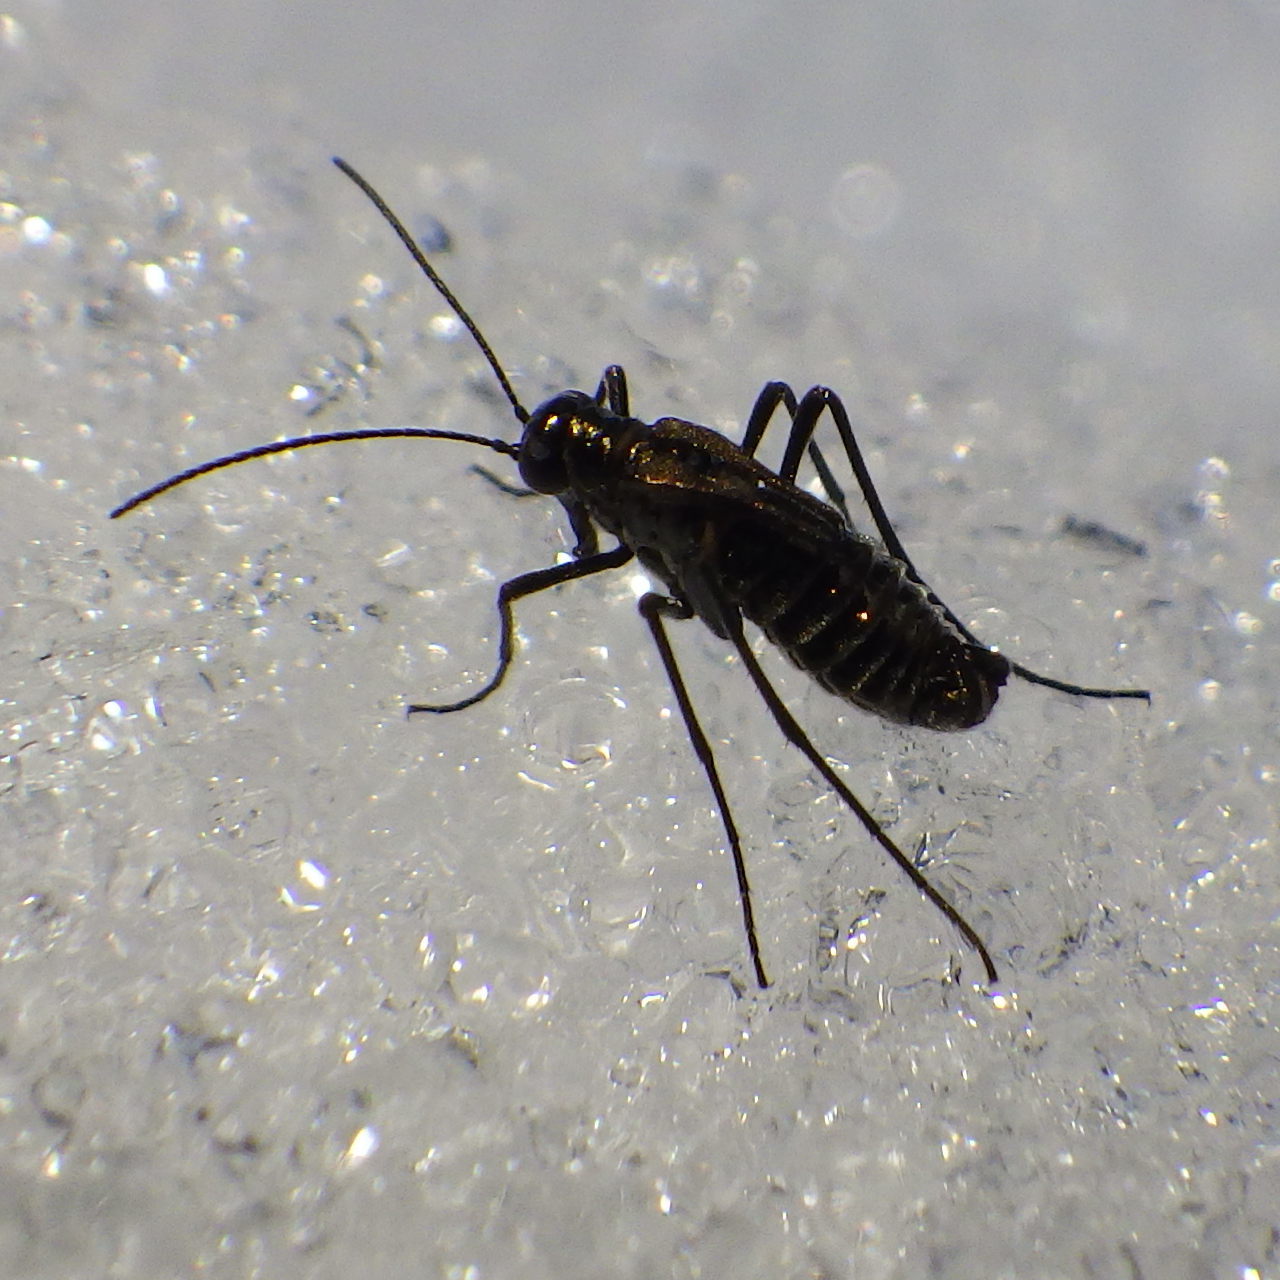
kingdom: Animalia
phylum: Arthropoda
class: Insecta
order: Mecoptera
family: Boreidae
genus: Boreus
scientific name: Boreus brumalis
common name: Mid-winter boreus
